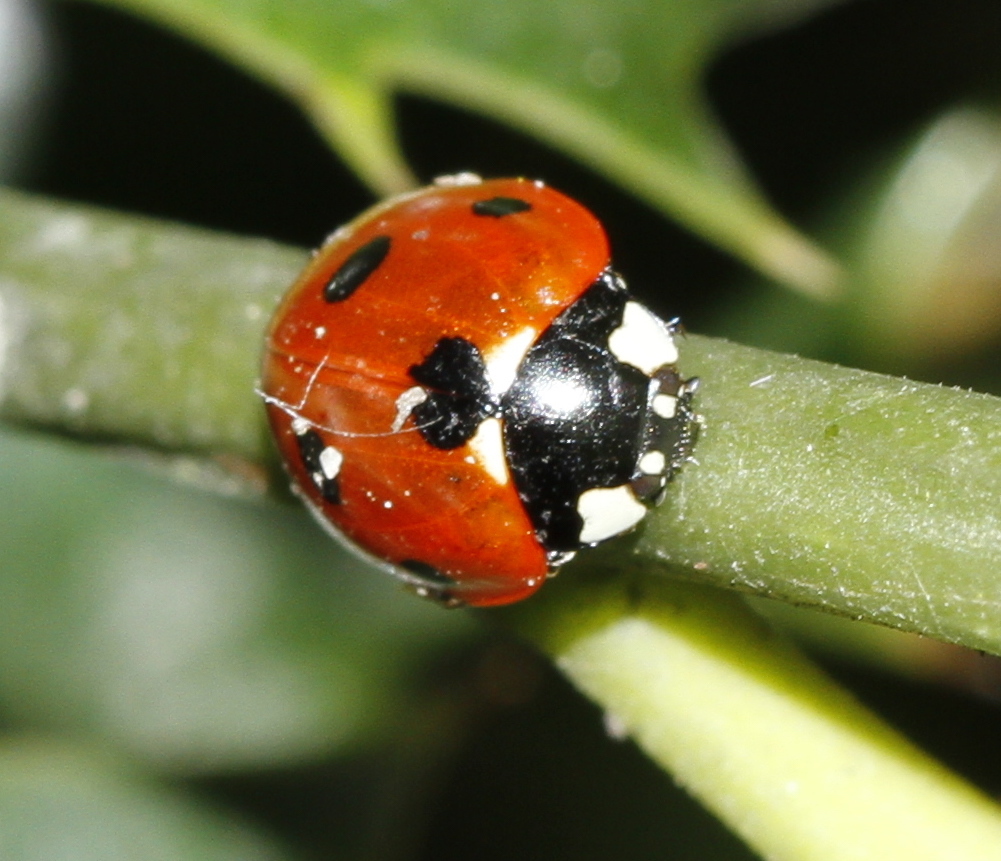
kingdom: Animalia
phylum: Arthropoda
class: Insecta
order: Coleoptera
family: Coccinellidae
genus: Coccinella
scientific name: Coccinella septempunctata
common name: Sevenspotted lady beetle
